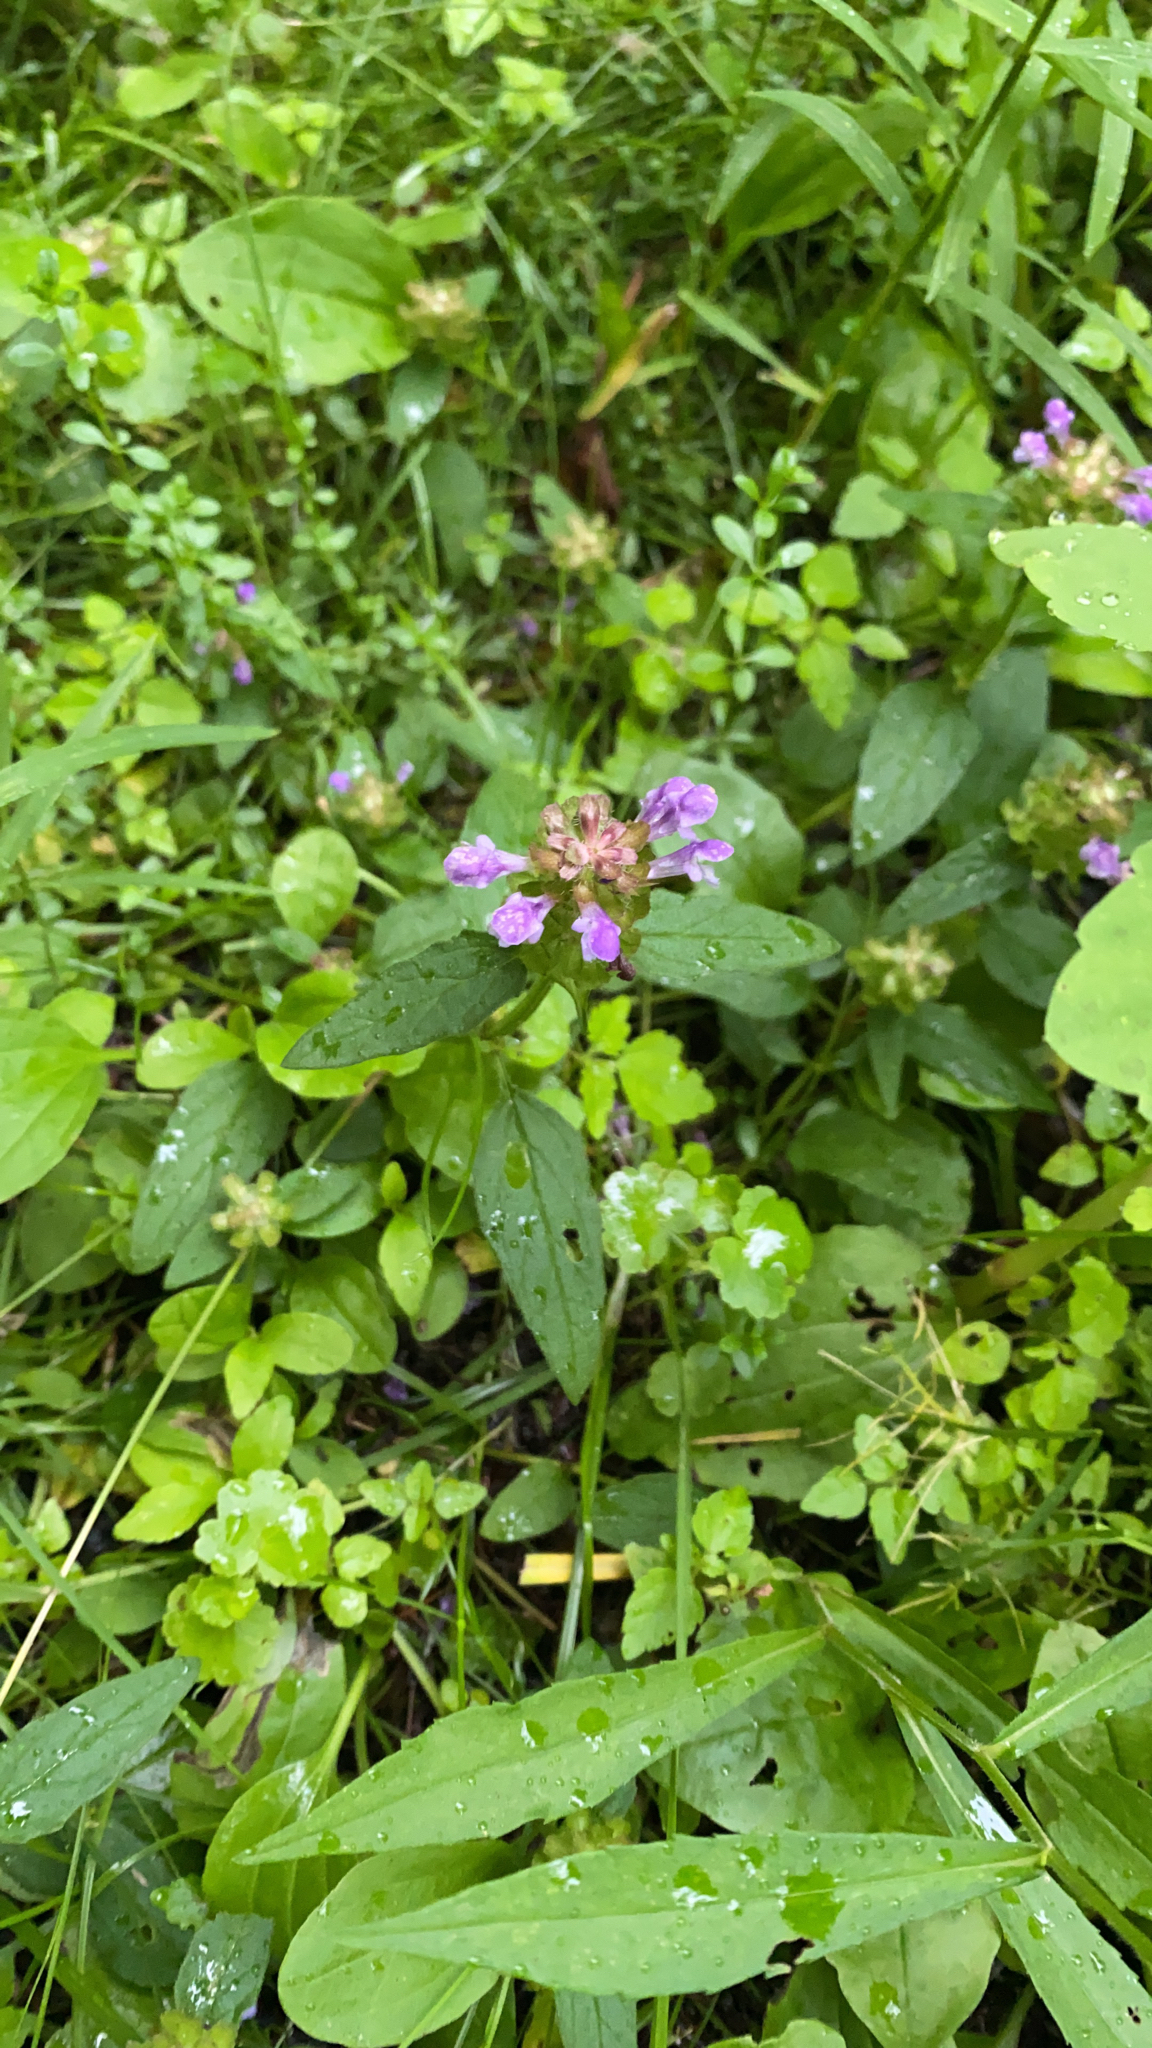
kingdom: Plantae
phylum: Tracheophyta
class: Magnoliopsida
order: Lamiales
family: Lamiaceae
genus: Prunella
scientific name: Prunella vulgaris
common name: Heal-all
